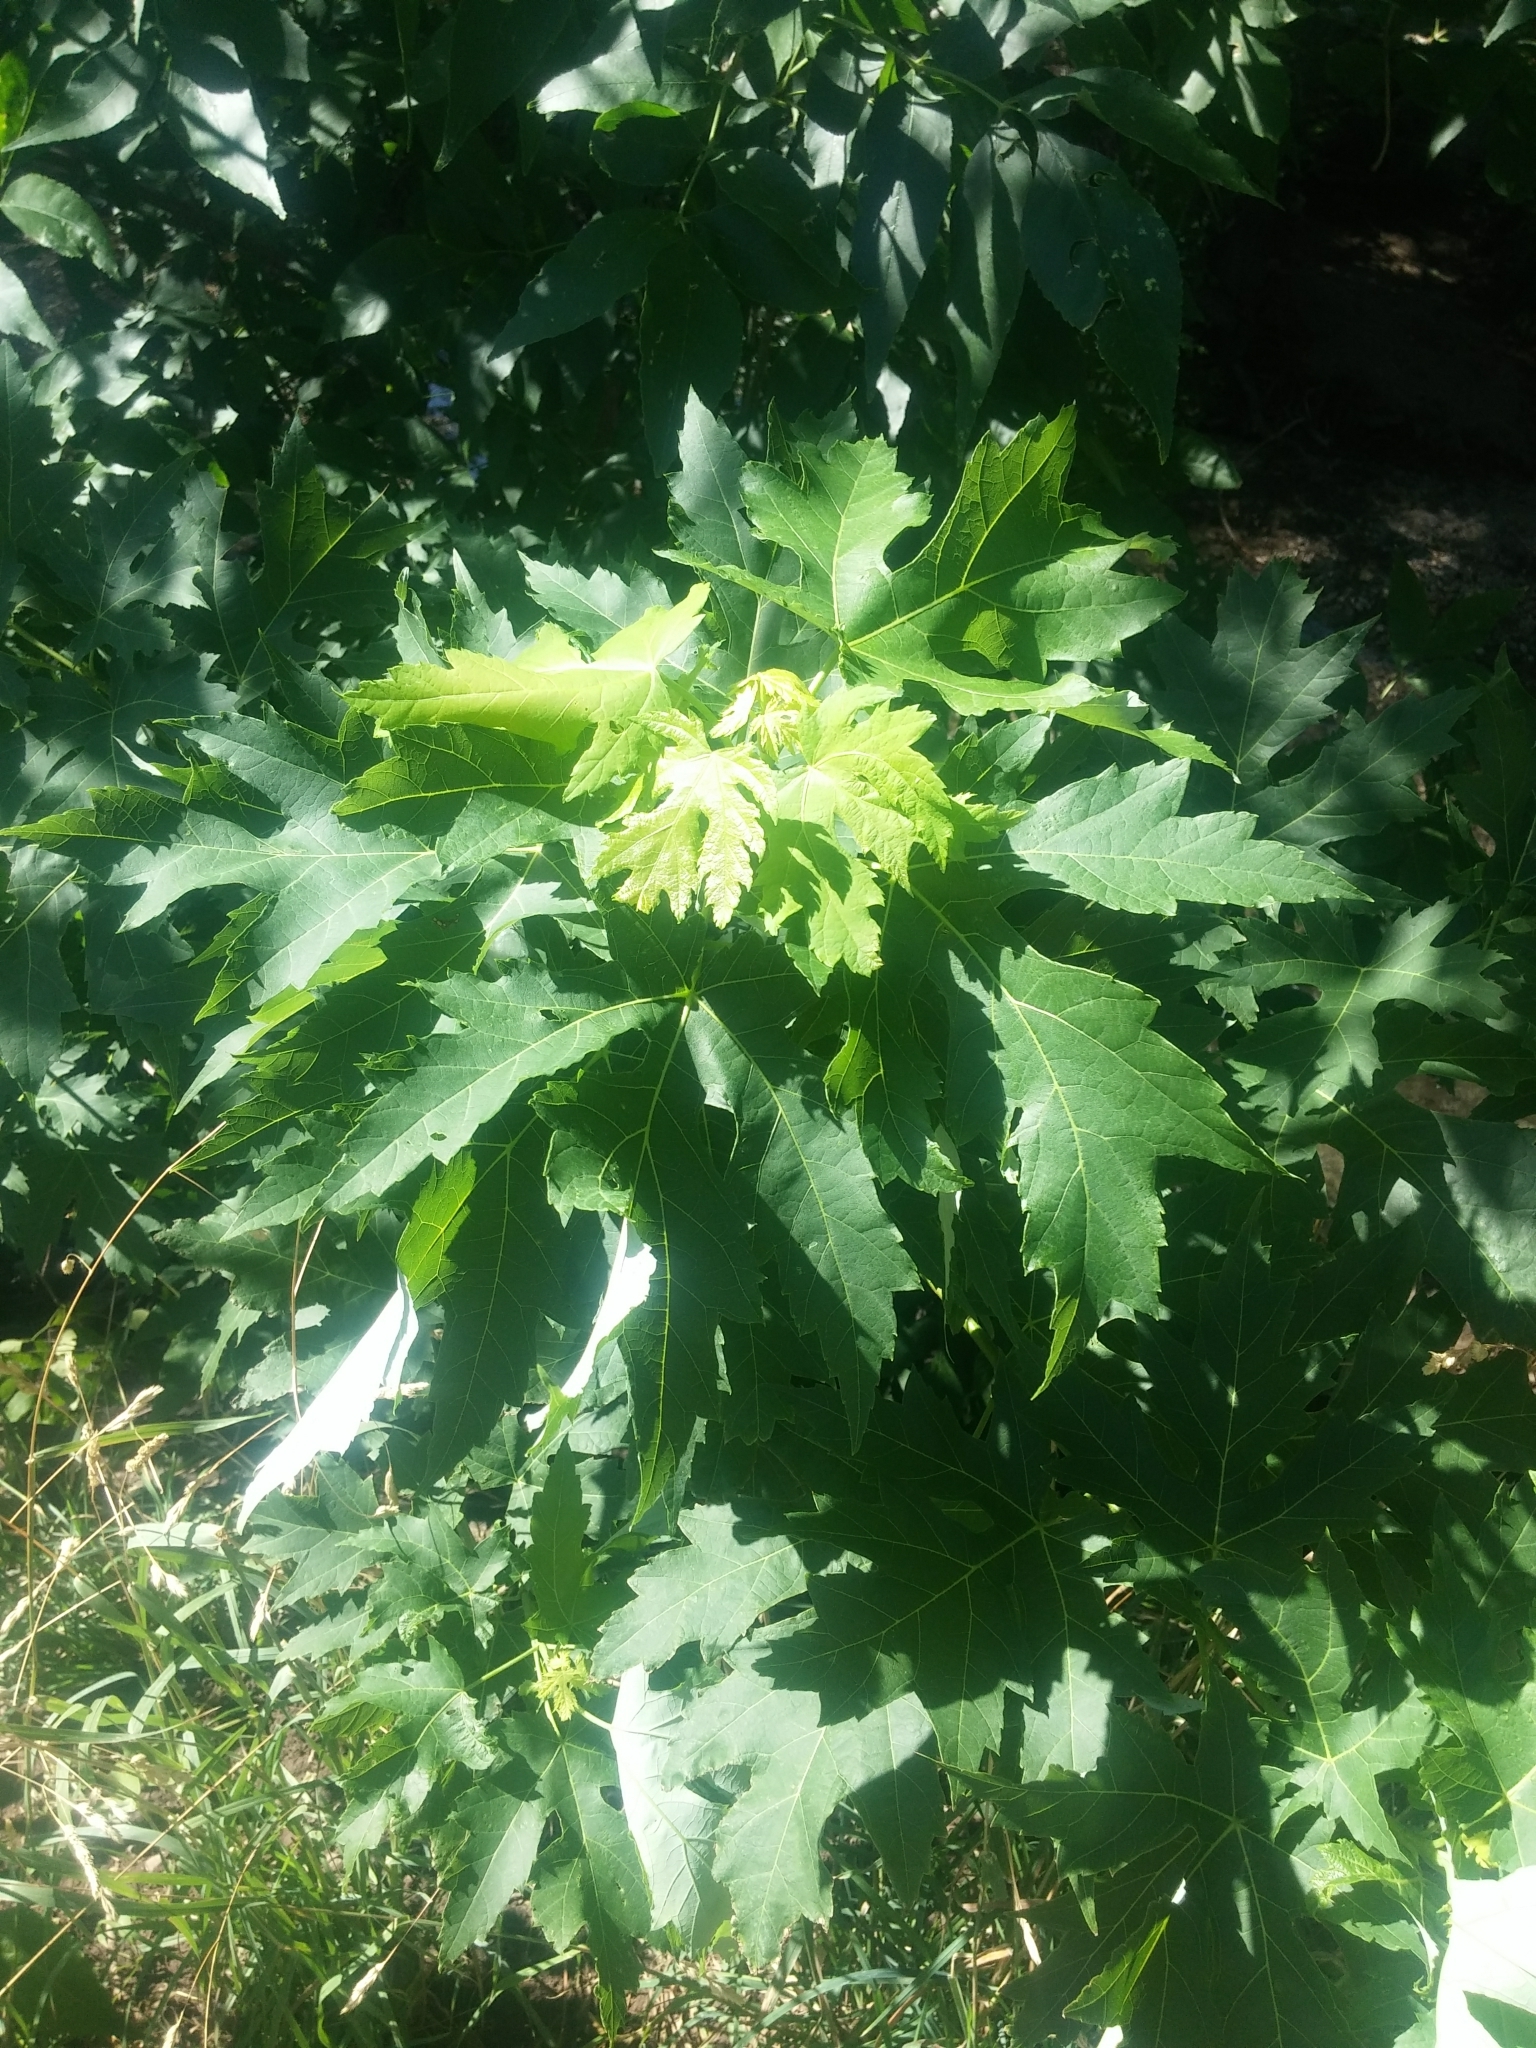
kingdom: Plantae
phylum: Tracheophyta
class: Magnoliopsida
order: Sapindales
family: Sapindaceae
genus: Acer
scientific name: Acer saccharinum
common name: Silver maple
